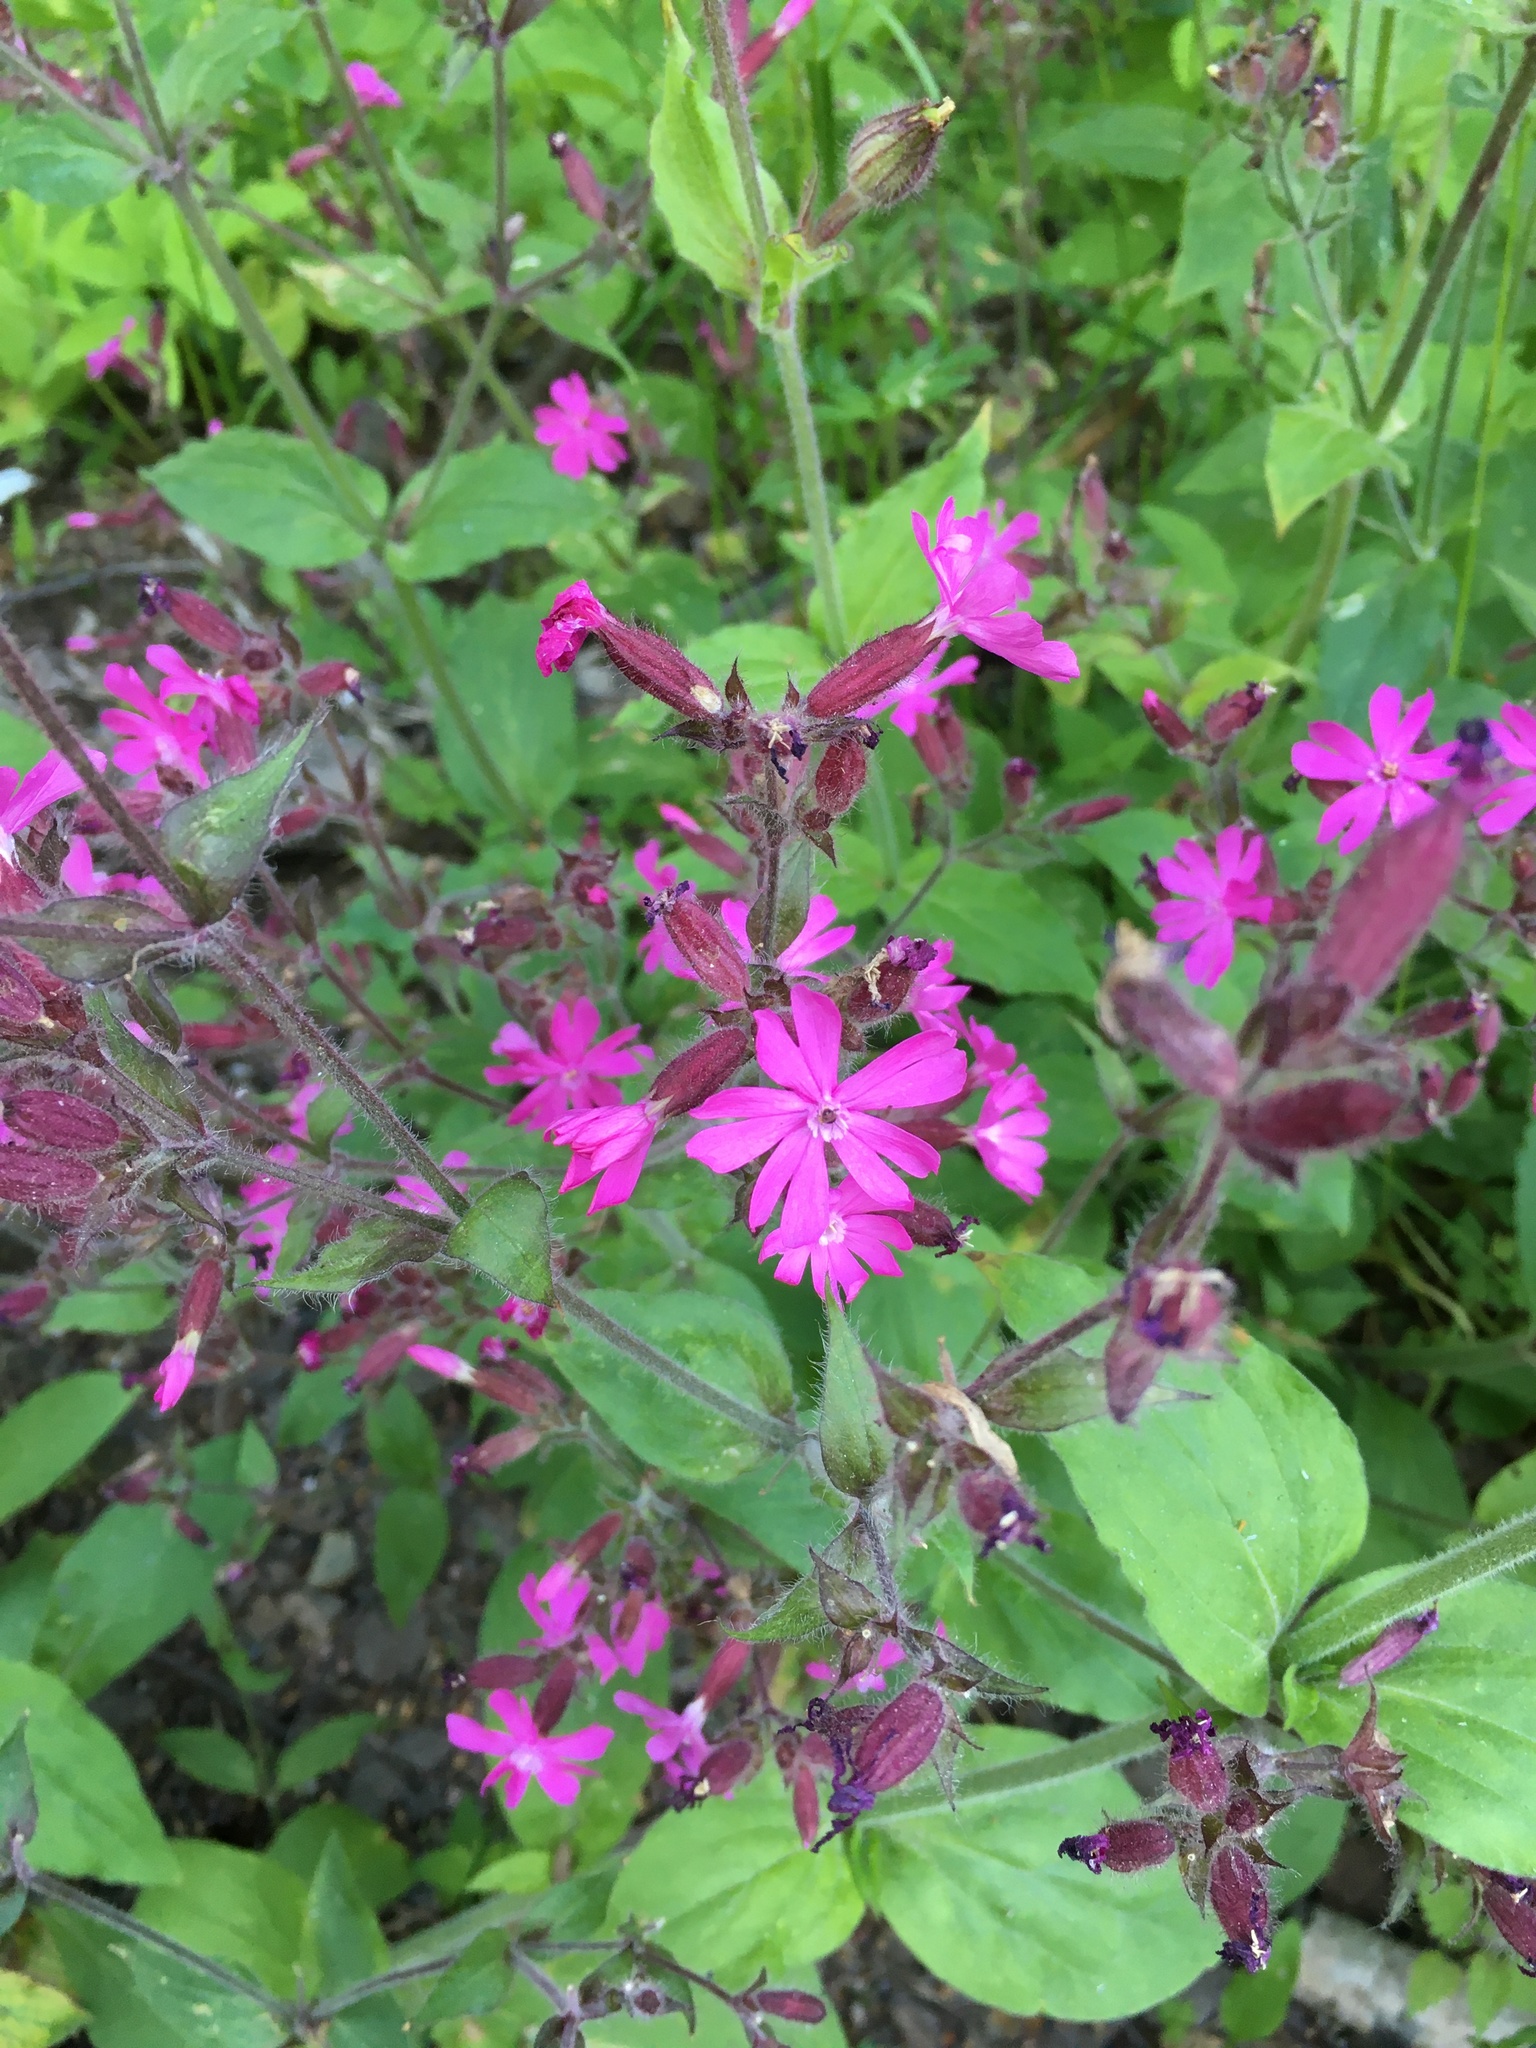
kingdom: Plantae
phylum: Tracheophyta
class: Magnoliopsida
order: Caryophyllales
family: Caryophyllaceae
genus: Silene
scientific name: Silene dioica
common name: Red campion
